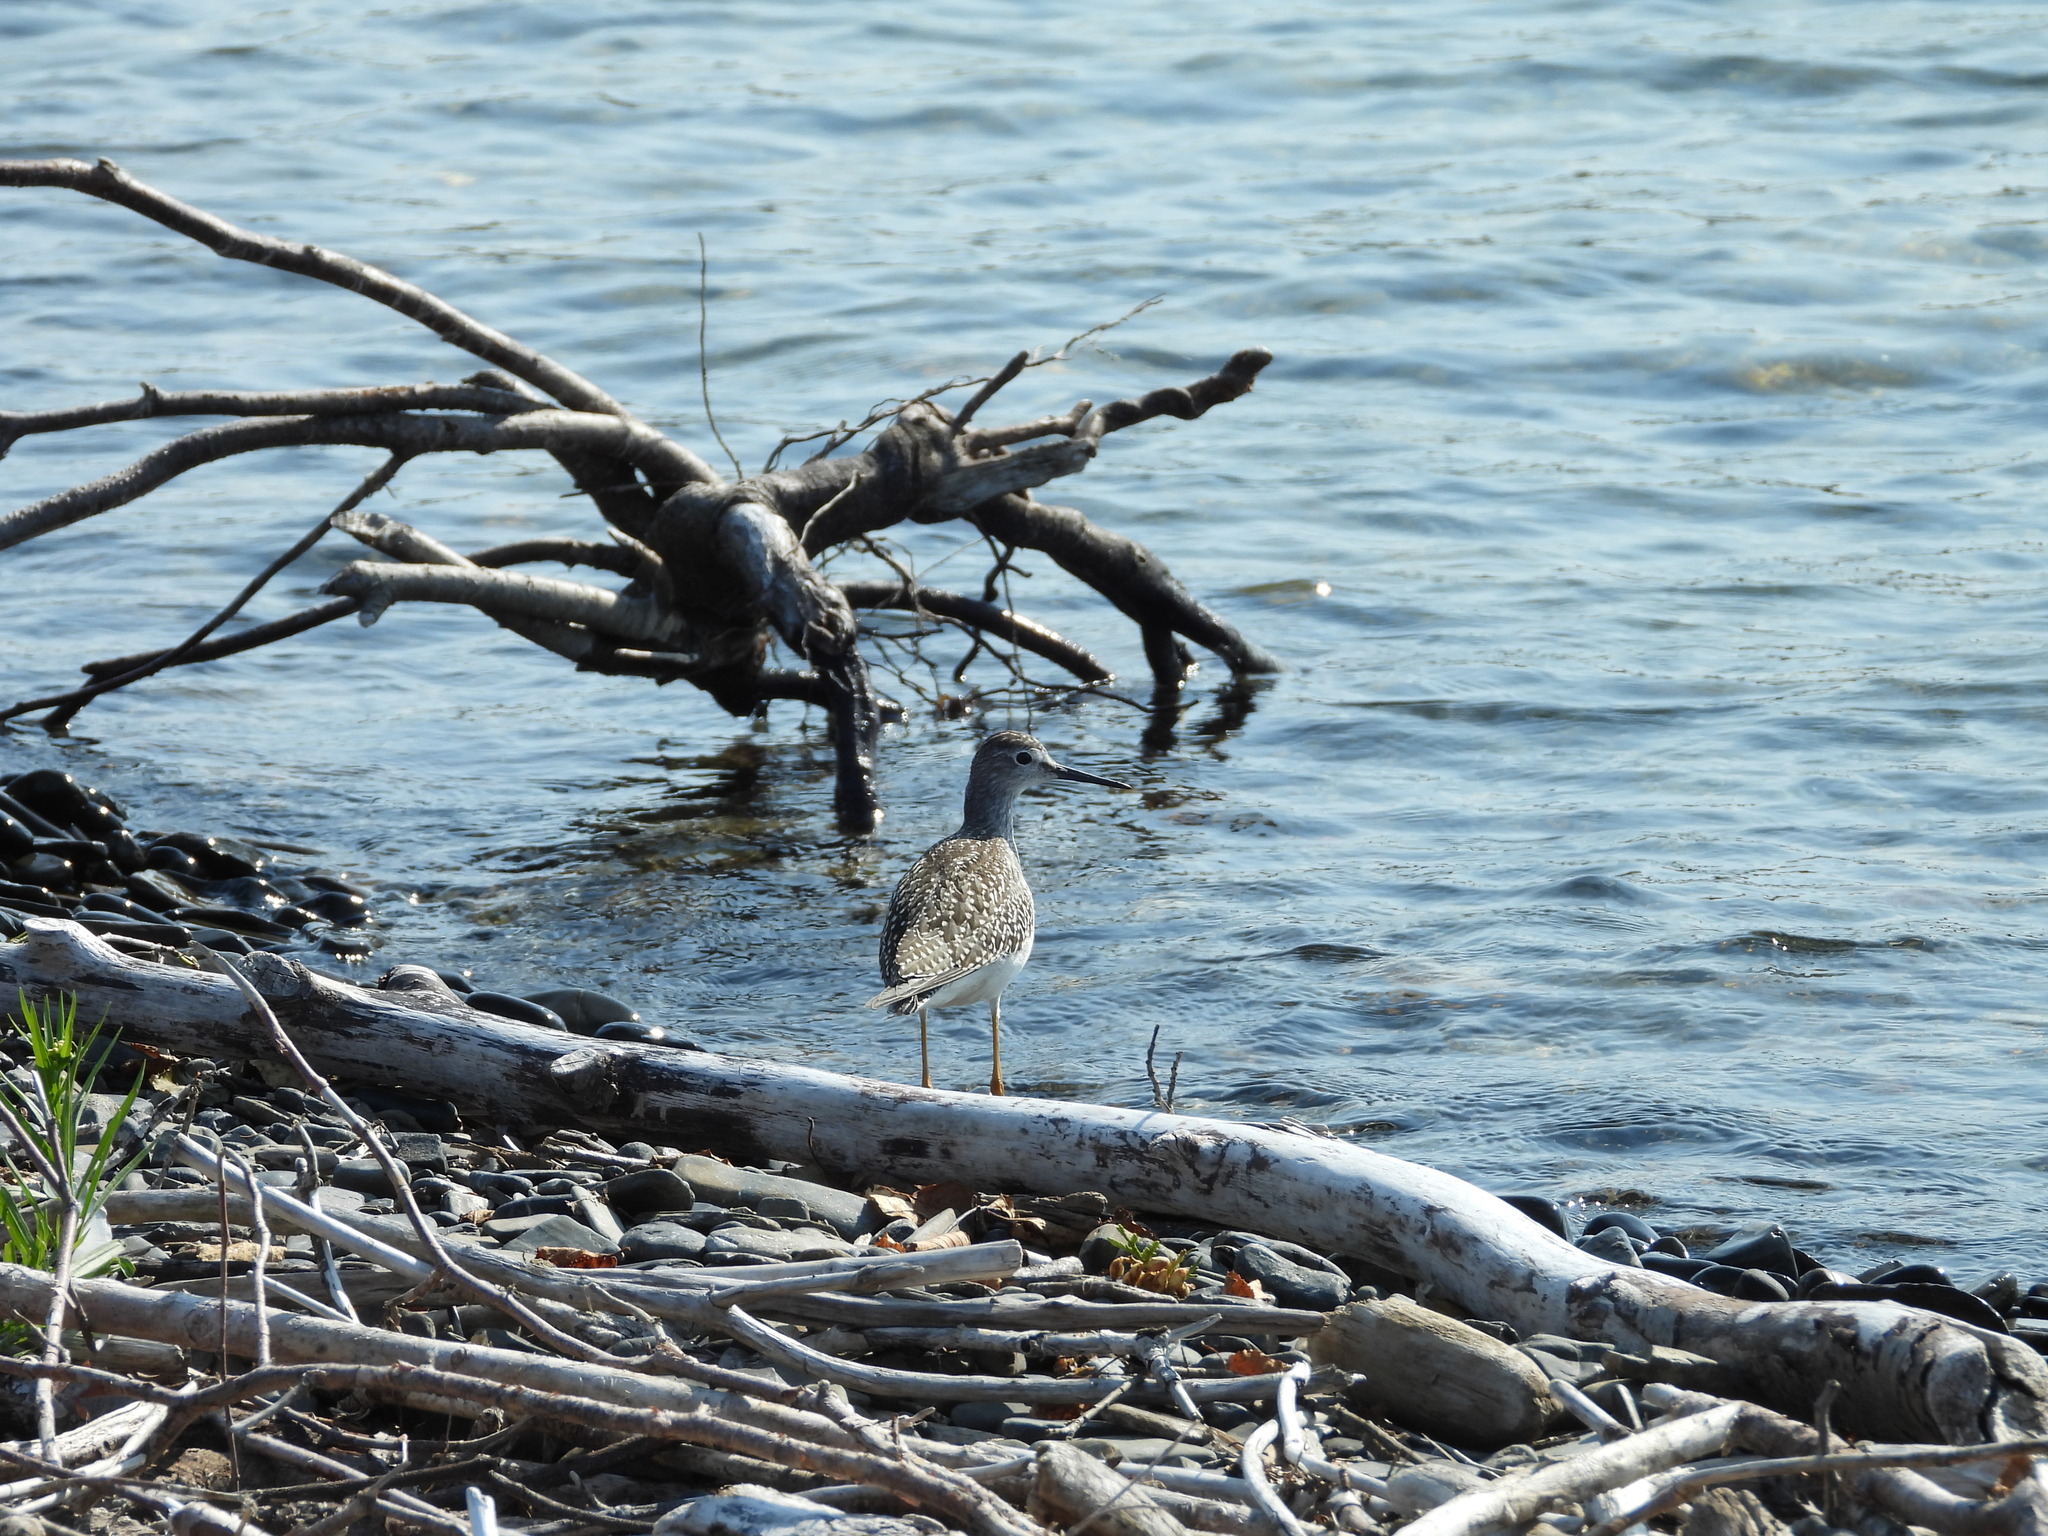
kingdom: Animalia
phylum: Chordata
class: Aves
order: Charadriiformes
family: Scolopacidae
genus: Tringa
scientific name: Tringa flavipes
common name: Lesser yellowlegs
